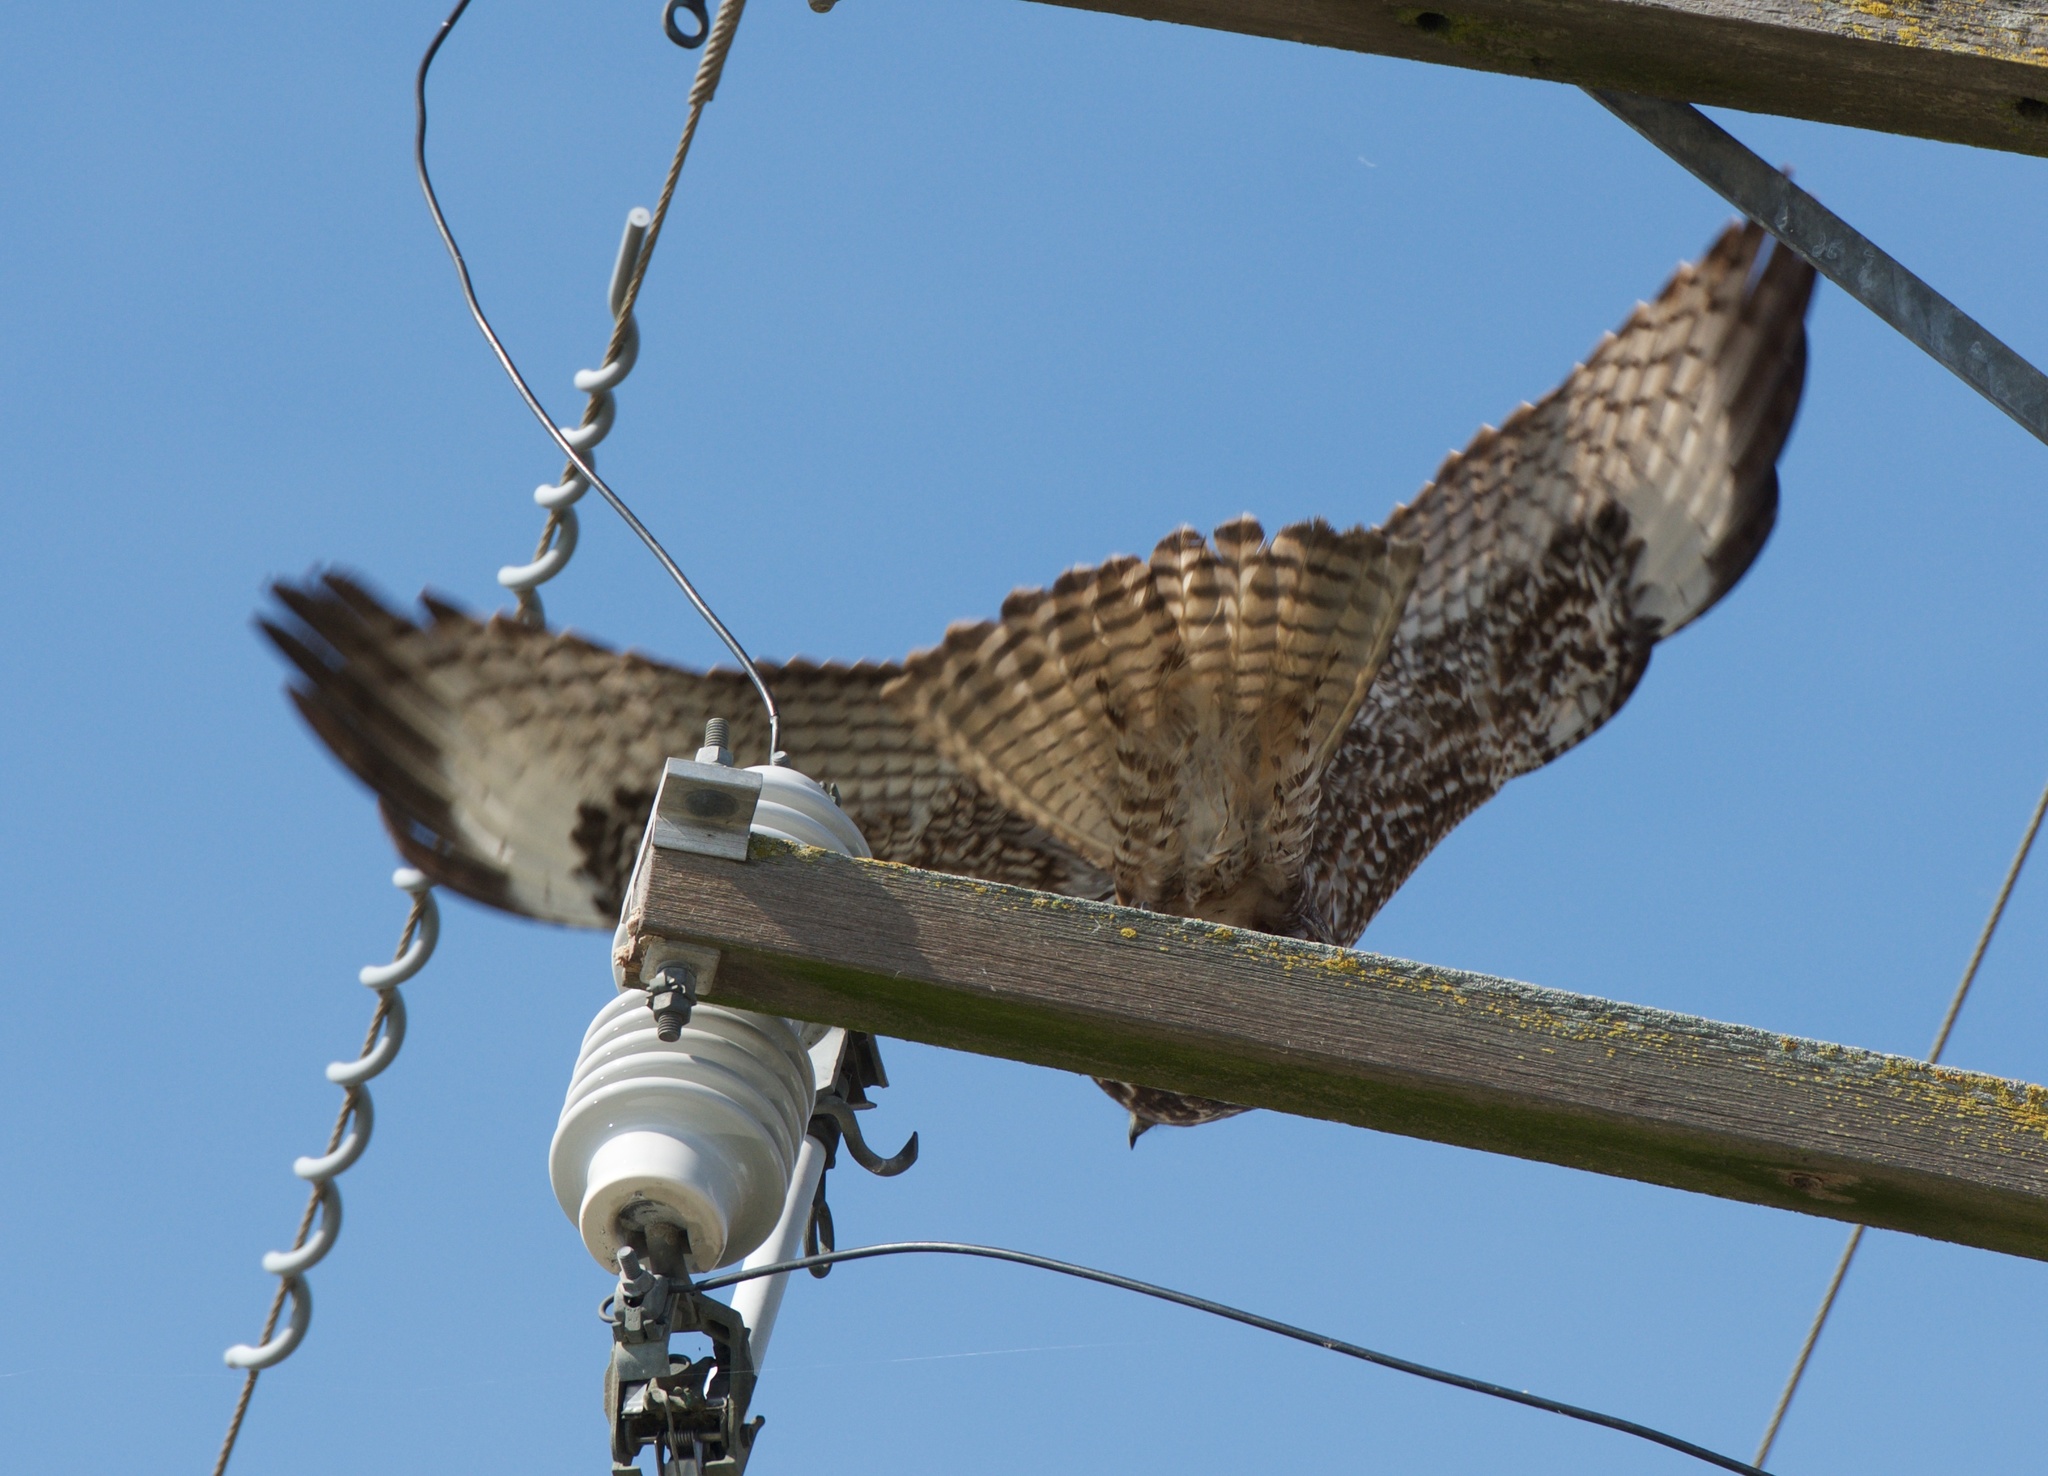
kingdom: Animalia
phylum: Chordata
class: Aves
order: Accipitriformes
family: Accipitridae
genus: Buteo
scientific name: Buteo jamaicensis
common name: Red-tailed hawk
